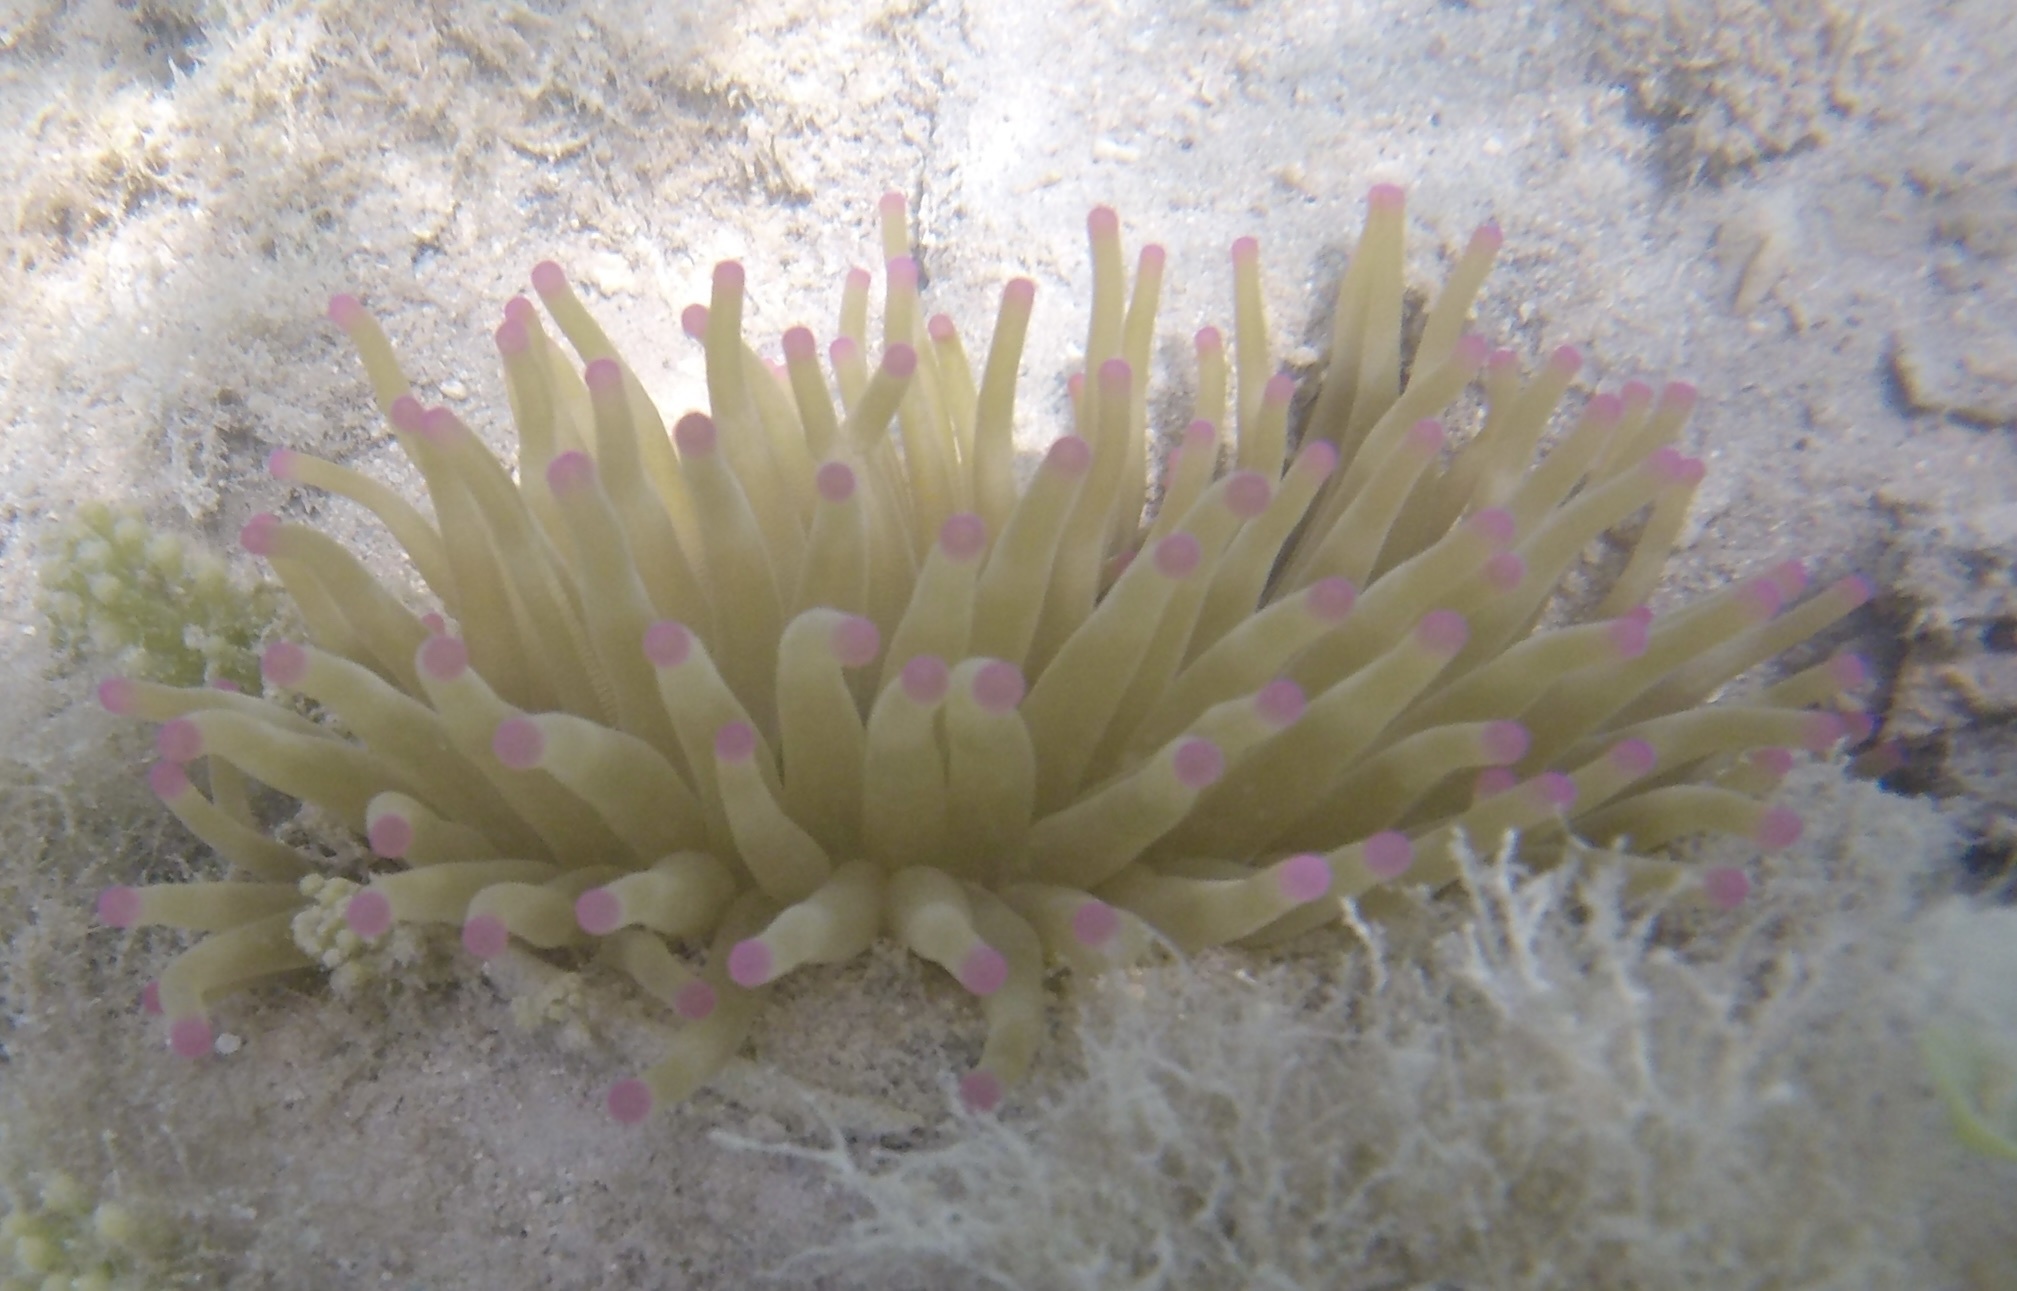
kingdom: Animalia
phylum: Cnidaria
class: Anthozoa
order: Actiniaria
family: Actiniidae
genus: Condylactis
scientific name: Condylactis gigantea
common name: Giant caribbean anemone
